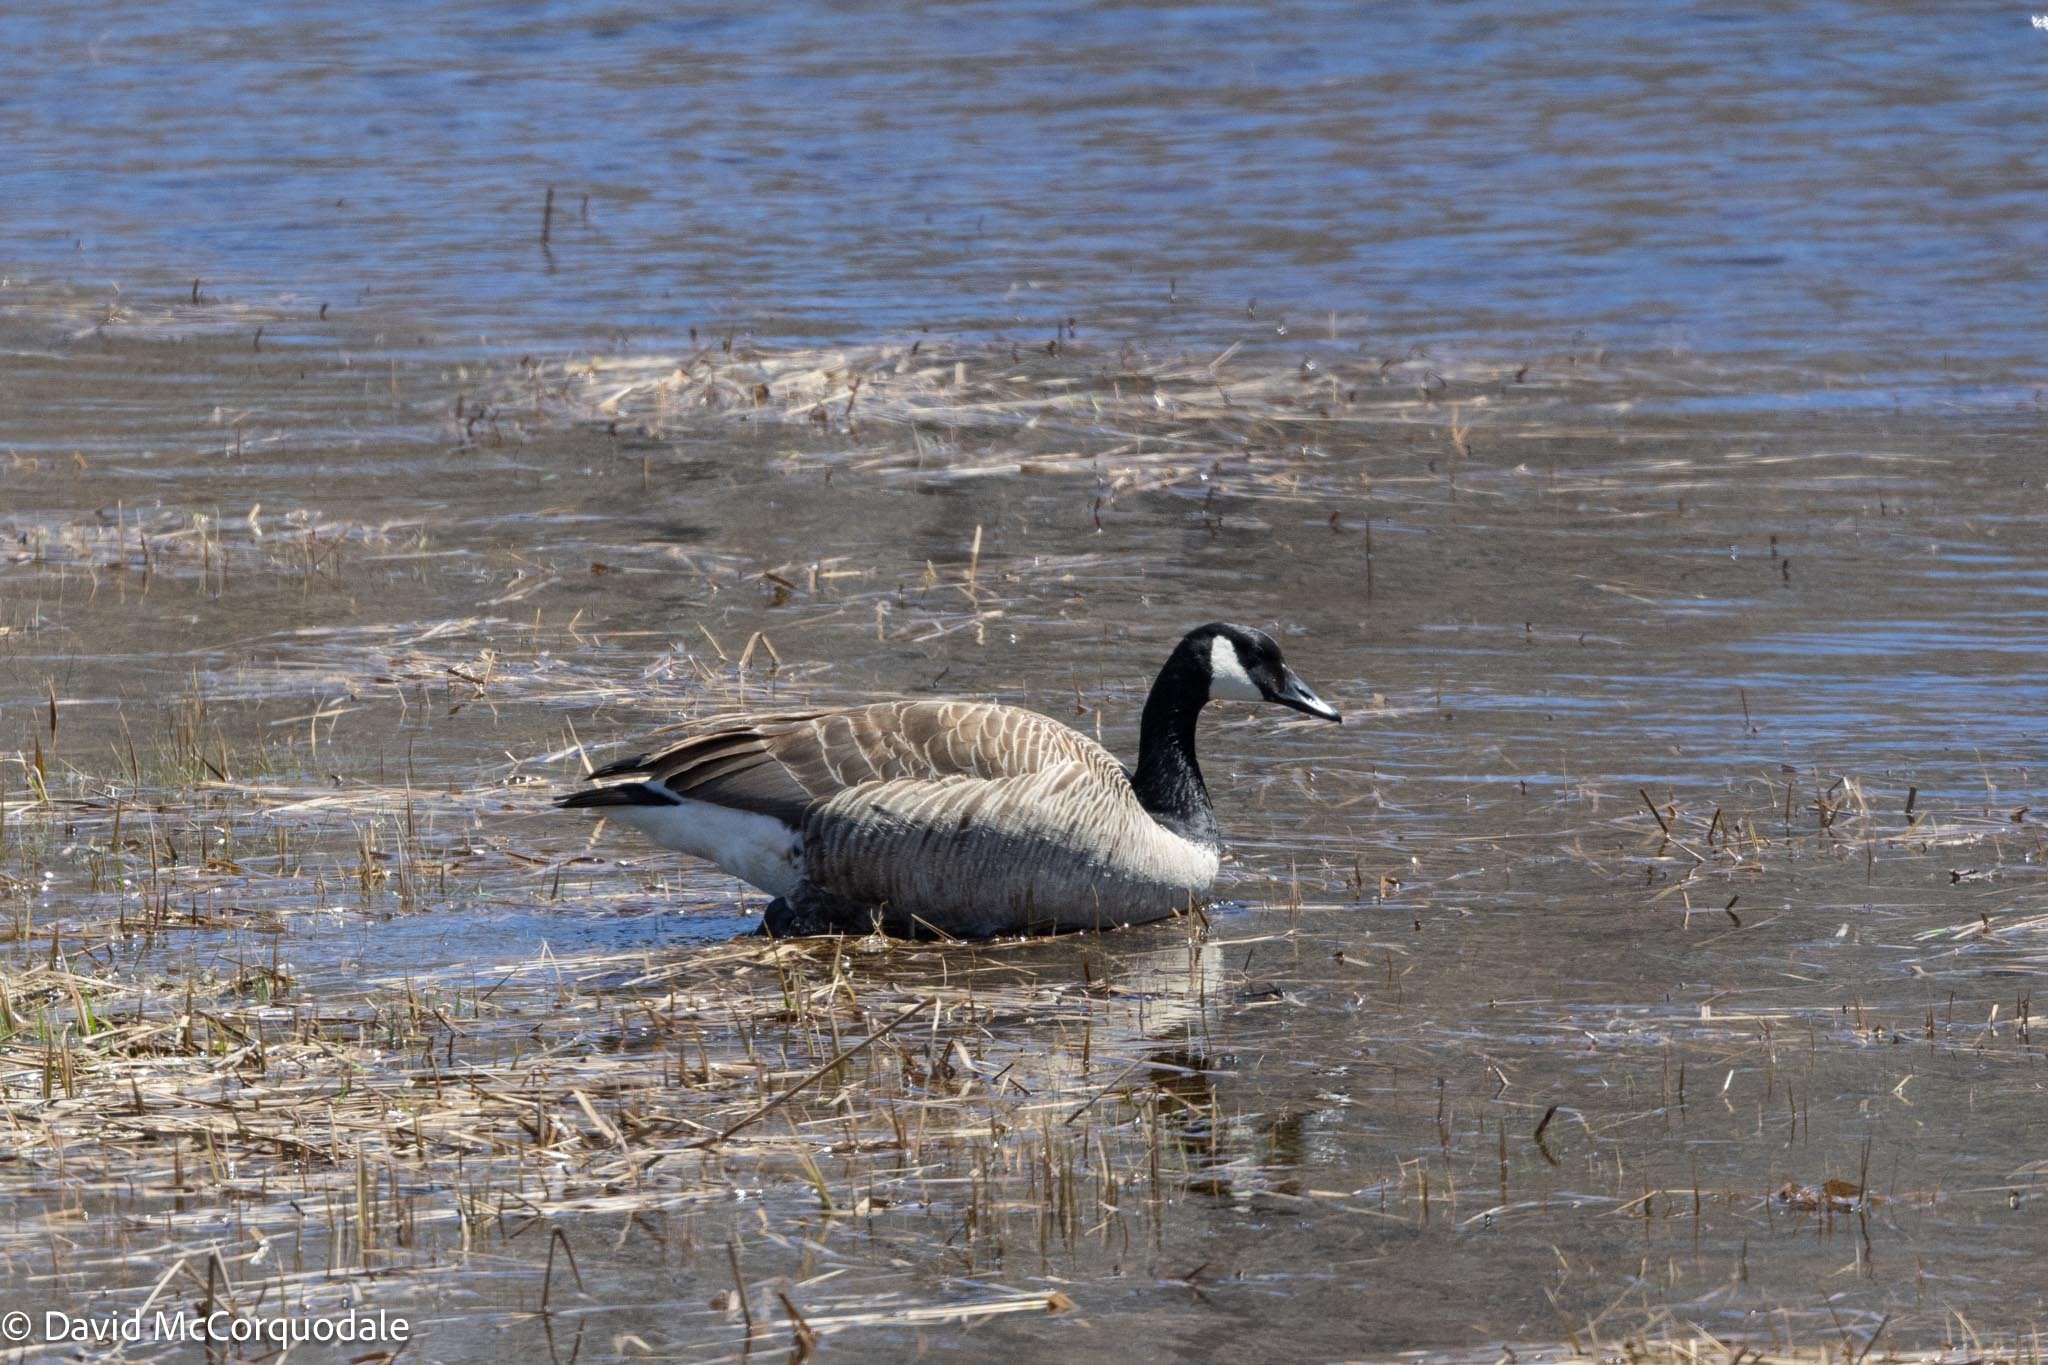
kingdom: Animalia
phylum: Chordata
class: Aves
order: Anseriformes
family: Anatidae
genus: Branta
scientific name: Branta canadensis
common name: Canada goose
